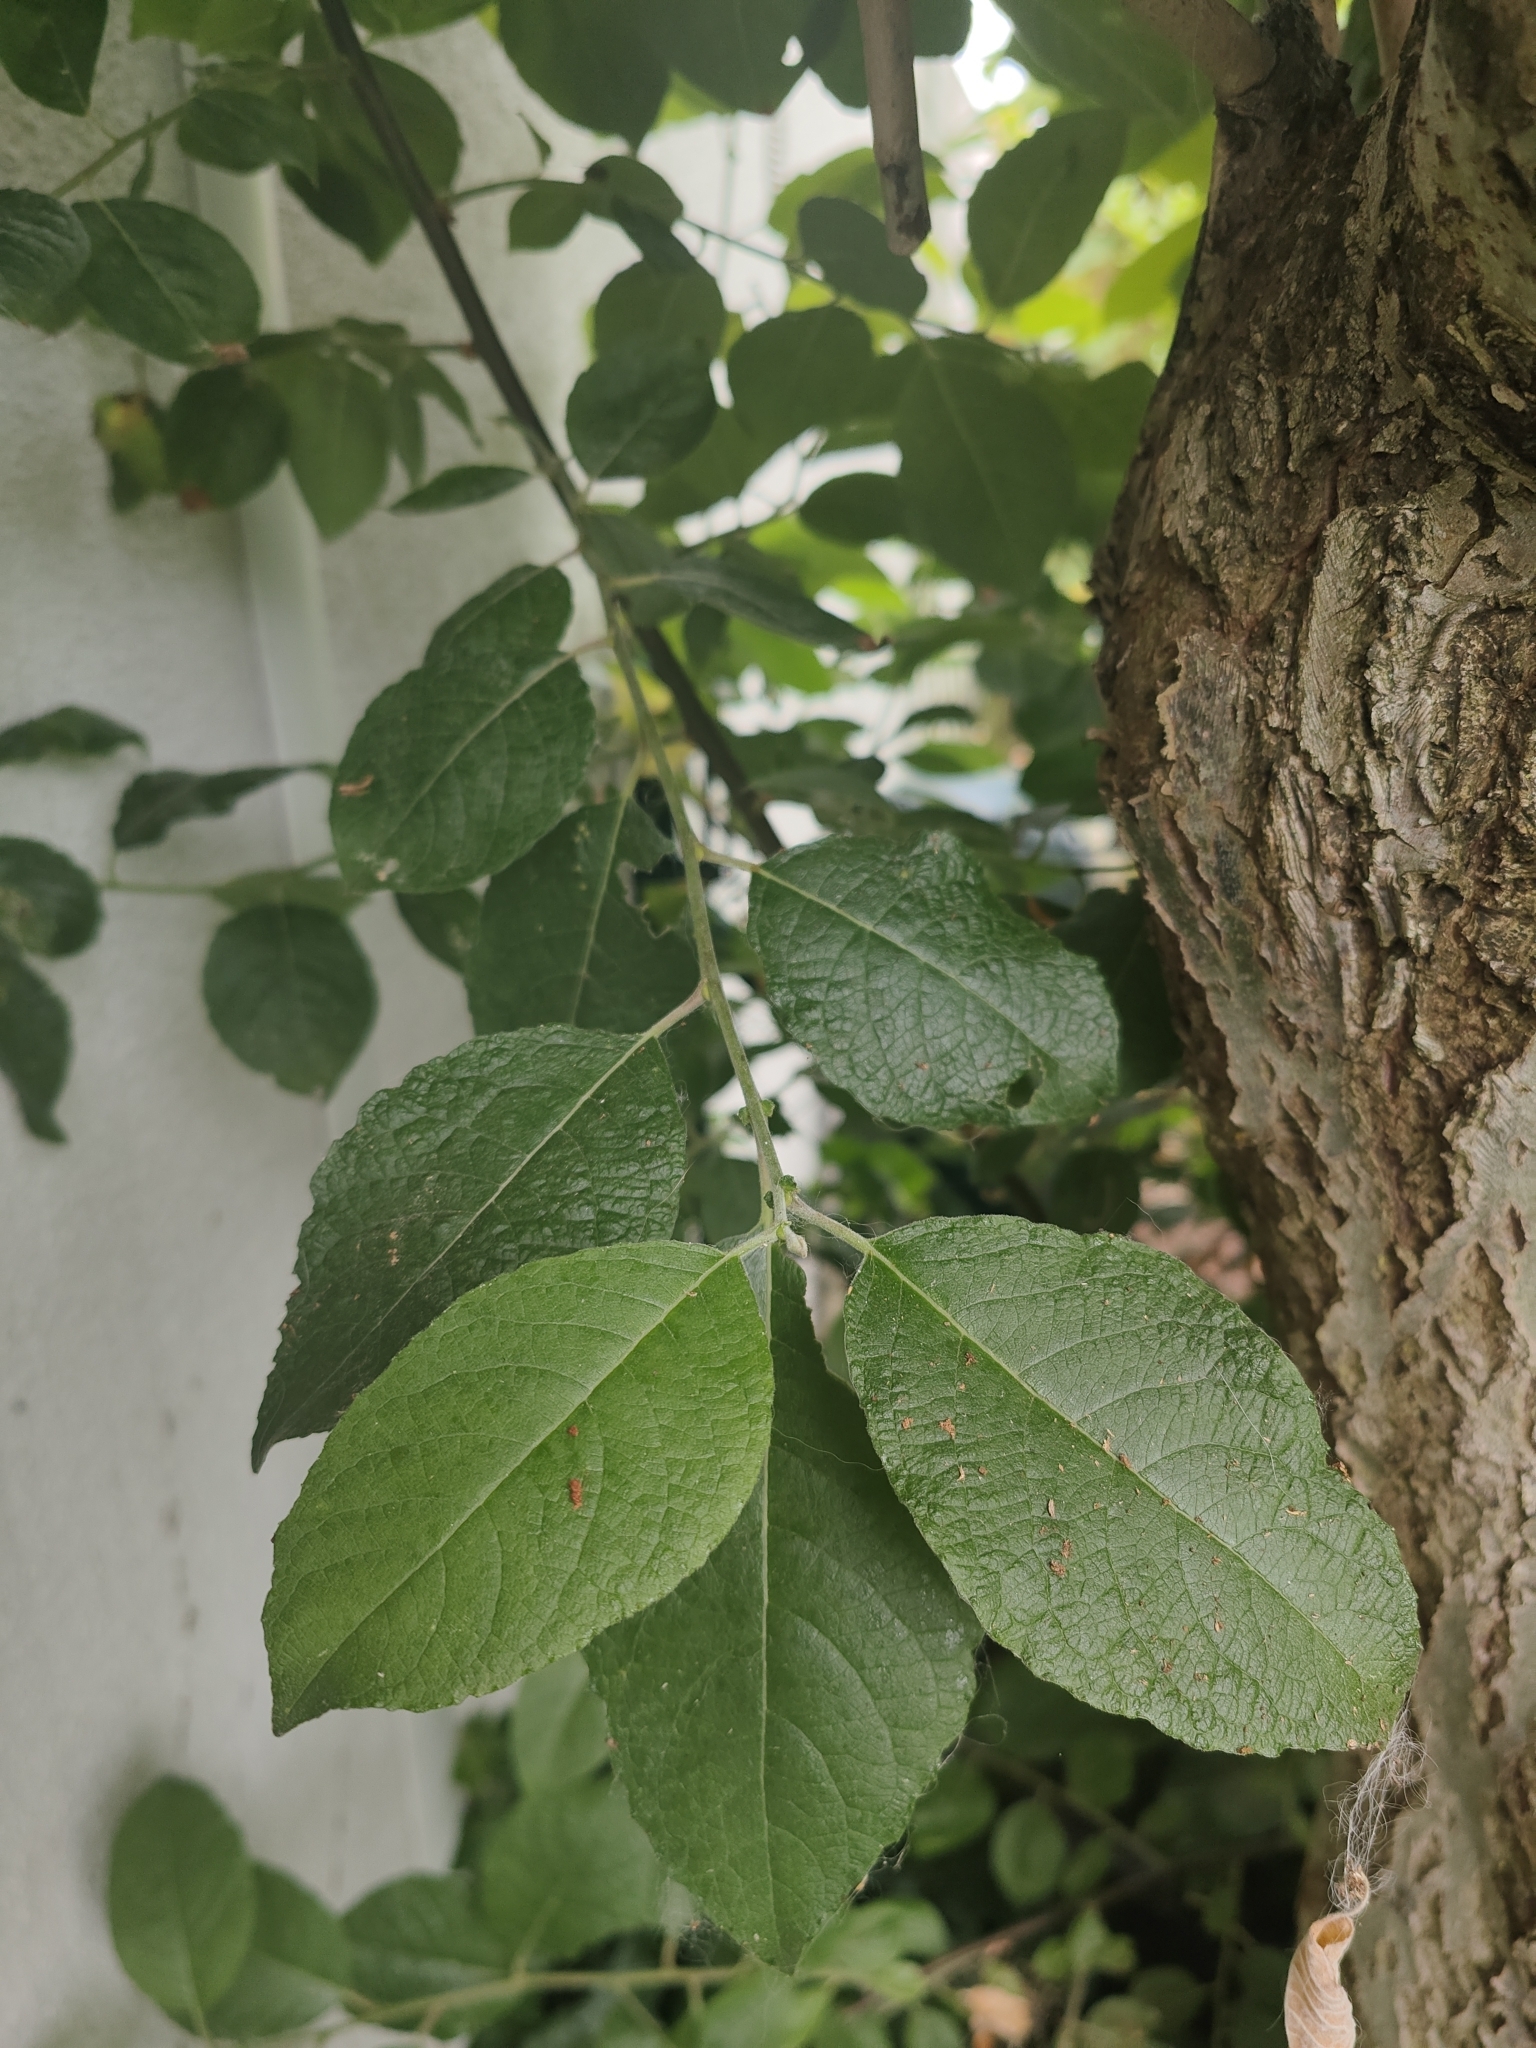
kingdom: Plantae
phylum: Tracheophyta
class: Magnoliopsida
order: Malpighiales
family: Salicaceae
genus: Salix
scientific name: Salix caprea
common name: Goat willow
